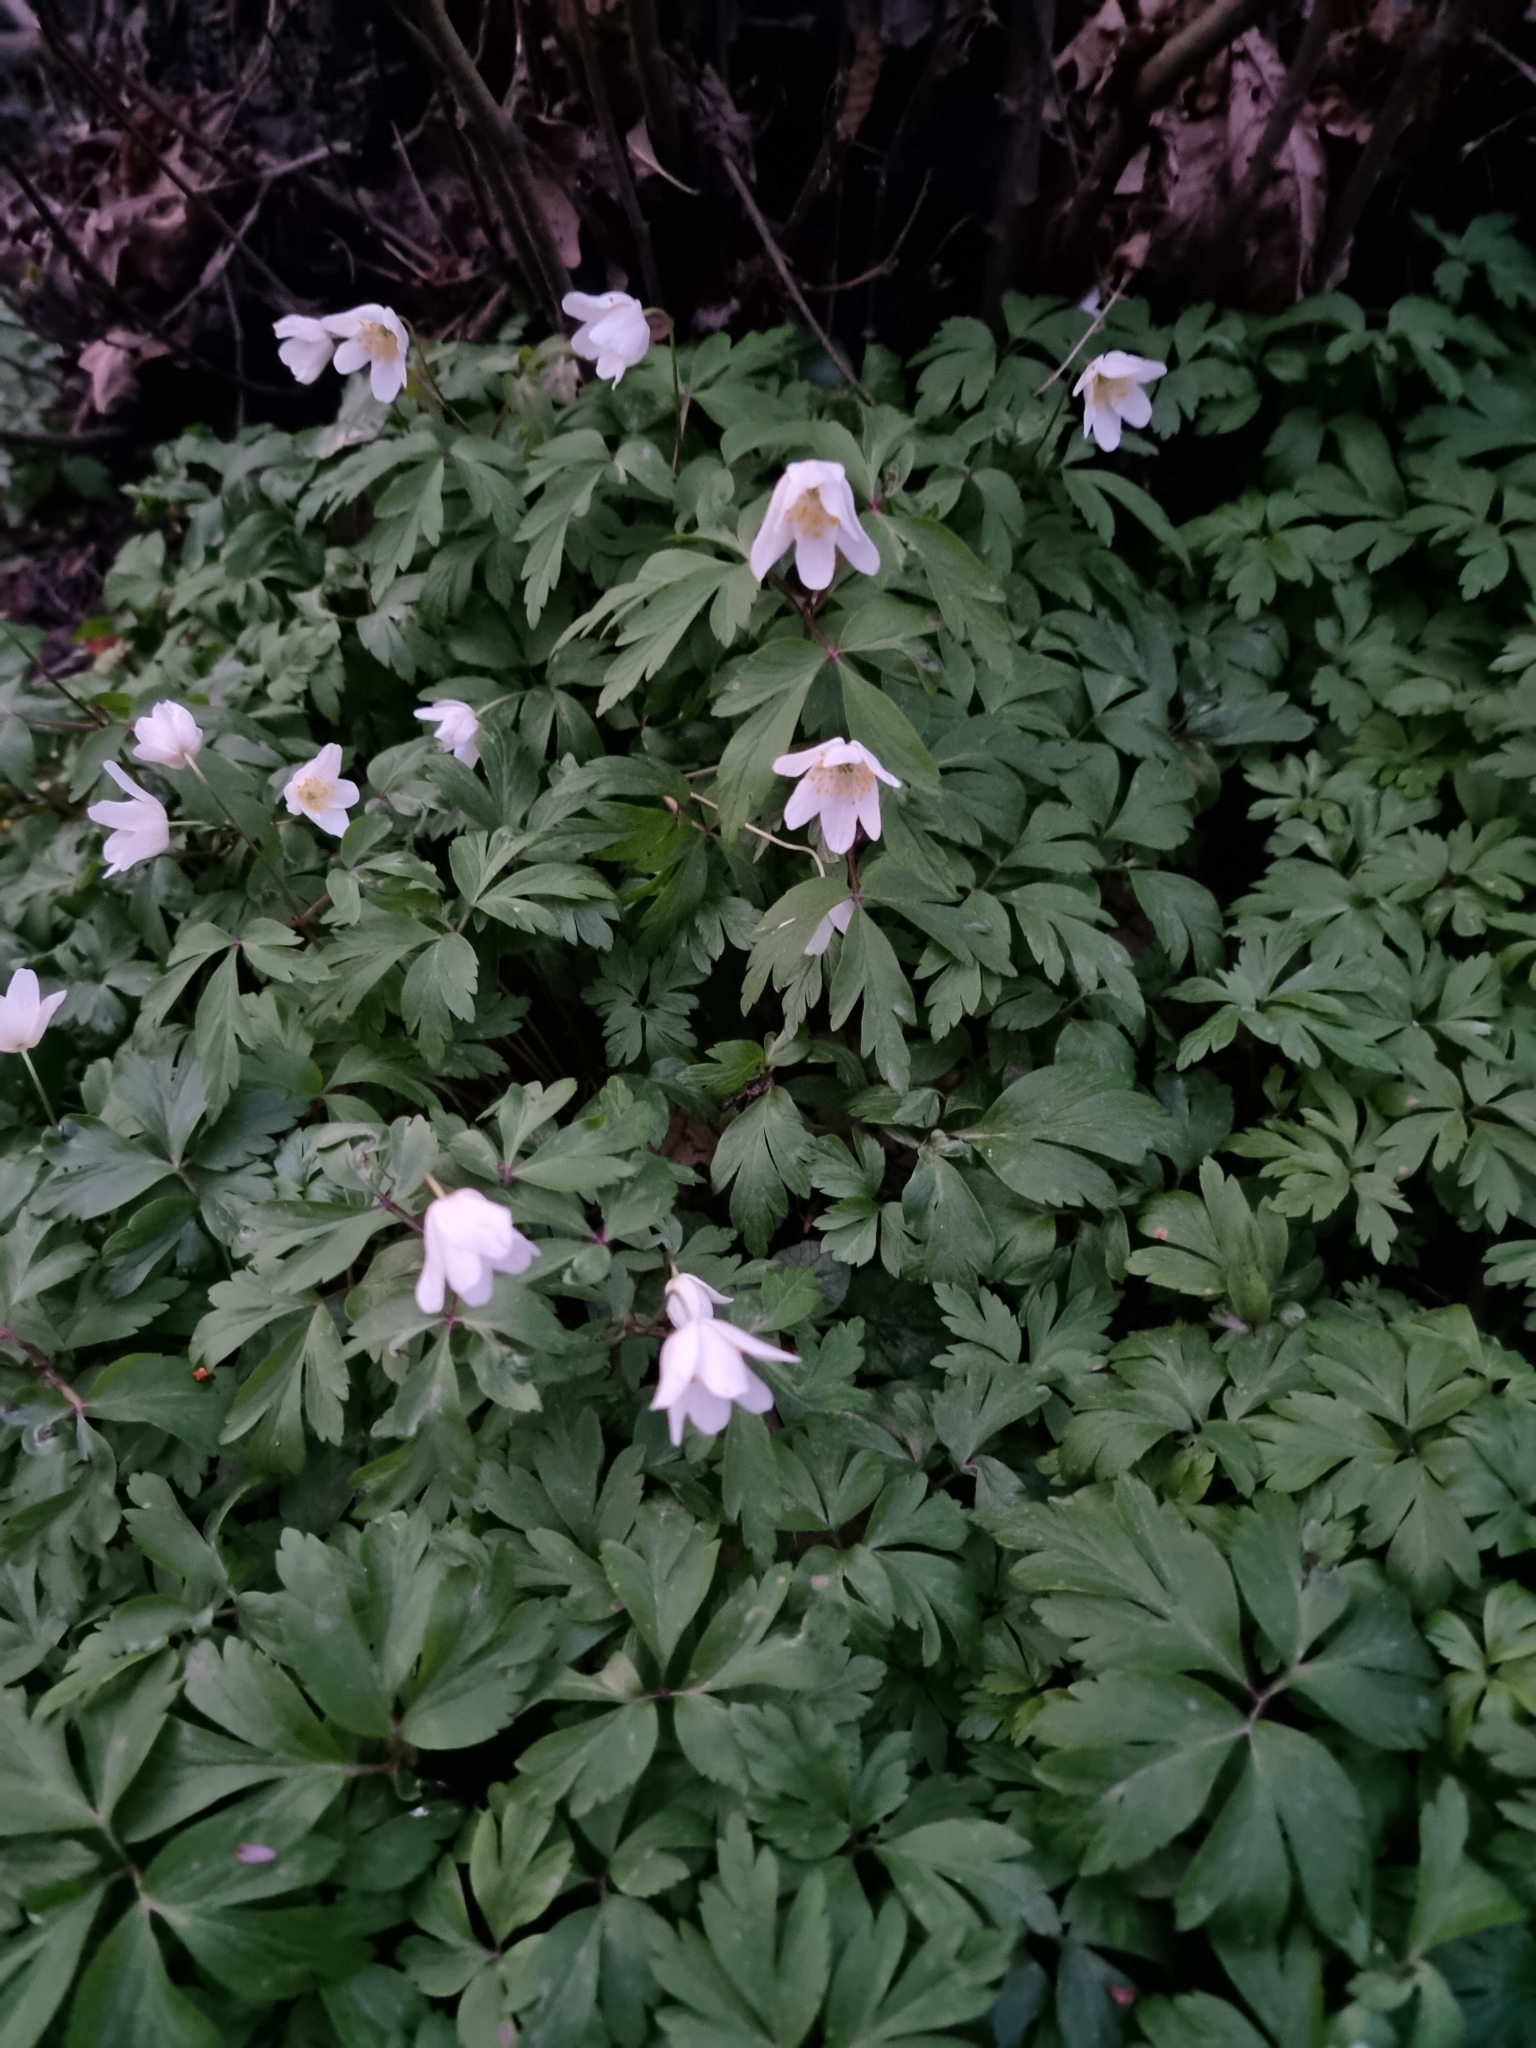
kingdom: Plantae
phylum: Tracheophyta
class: Magnoliopsida
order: Ranunculales
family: Ranunculaceae
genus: Anemone
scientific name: Anemone nemorosa
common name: Wood anemone
